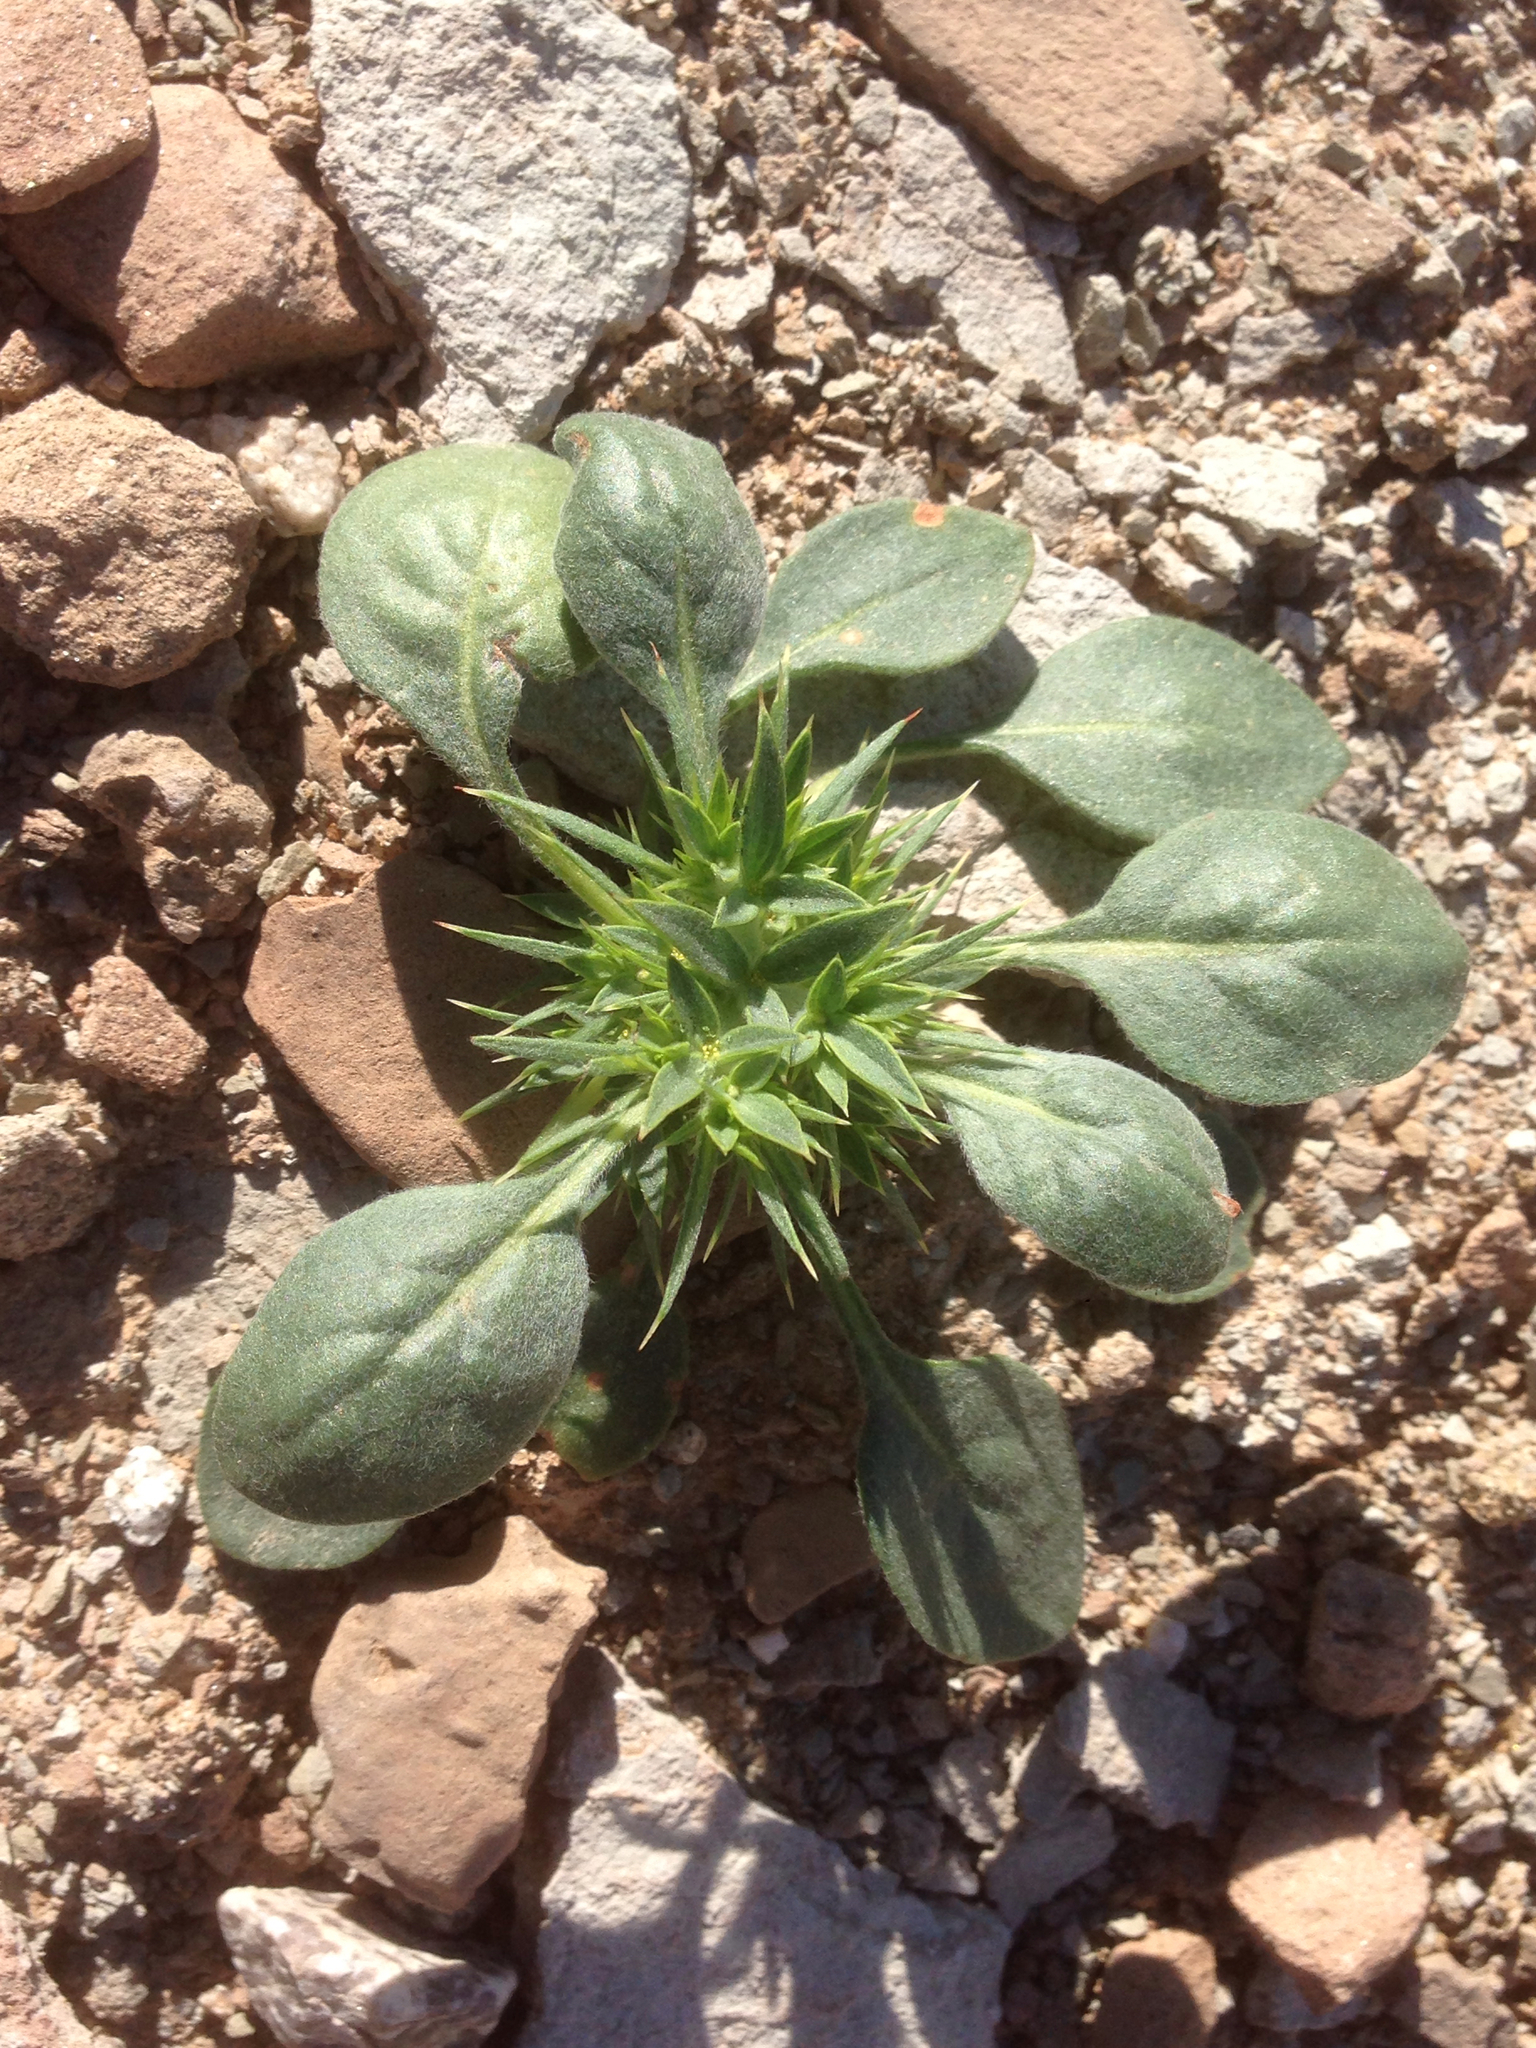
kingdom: Plantae
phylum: Tracheophyta
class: Magnoliopsida
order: Caryophyllales
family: Polygonaceae
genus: Chorizanthe
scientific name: Chorizanthe rigida
